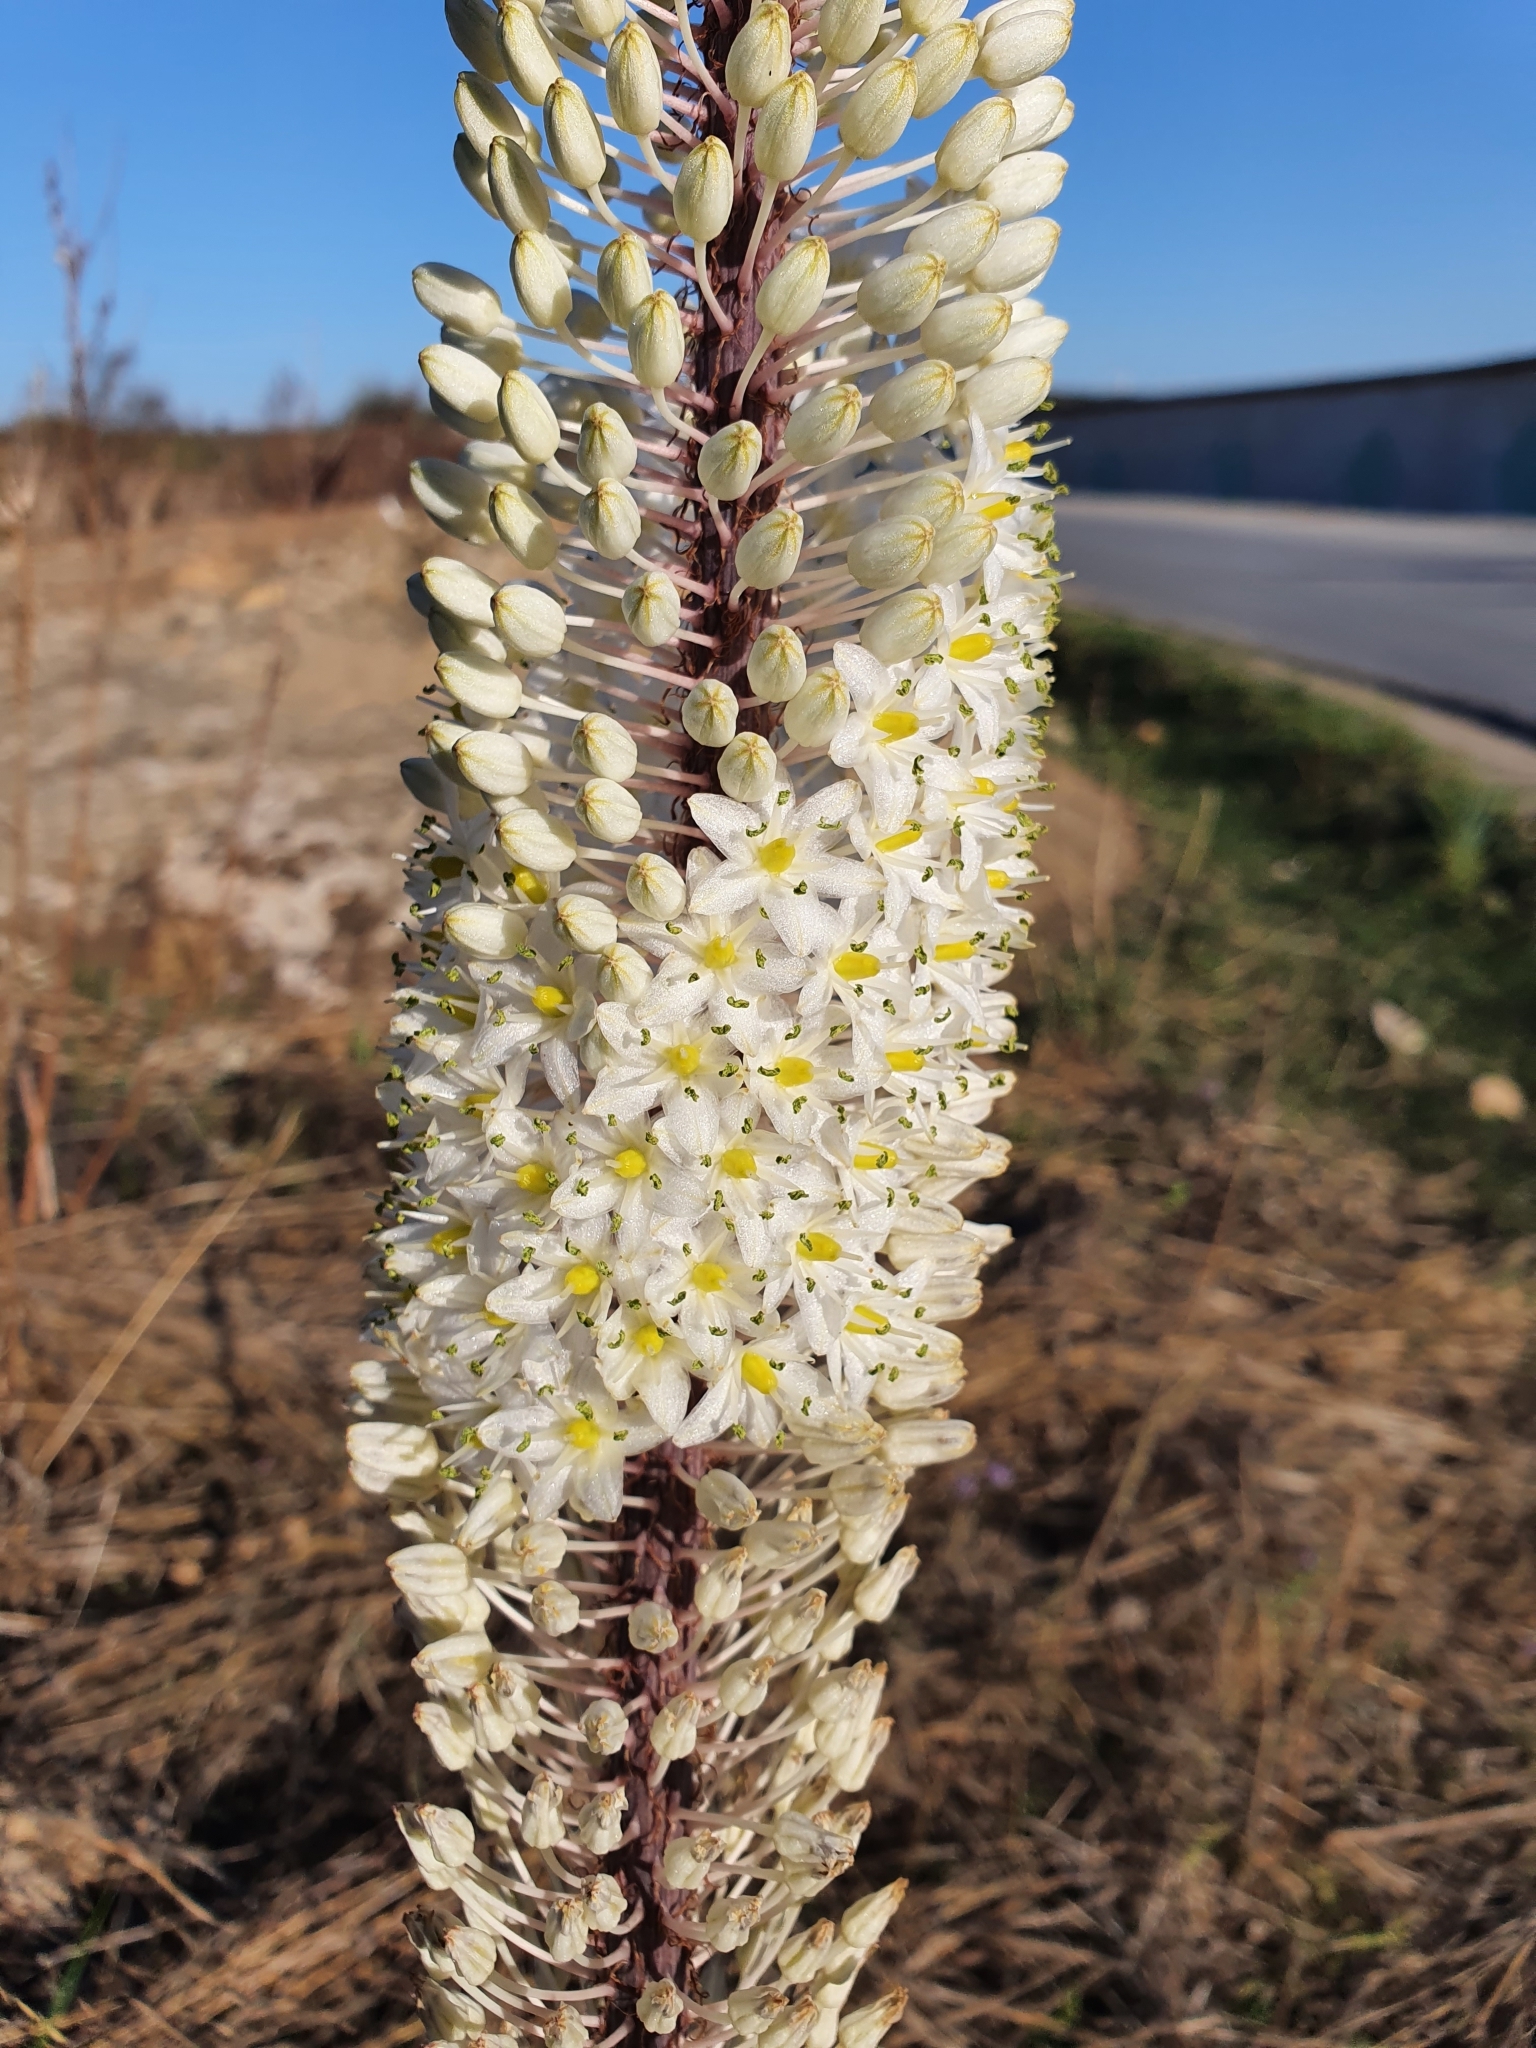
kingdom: Plantae
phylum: Tracheophyta
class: Liliopsida
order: Asparagales
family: Asparagaceae
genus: Drimia
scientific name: Drimia numidica
